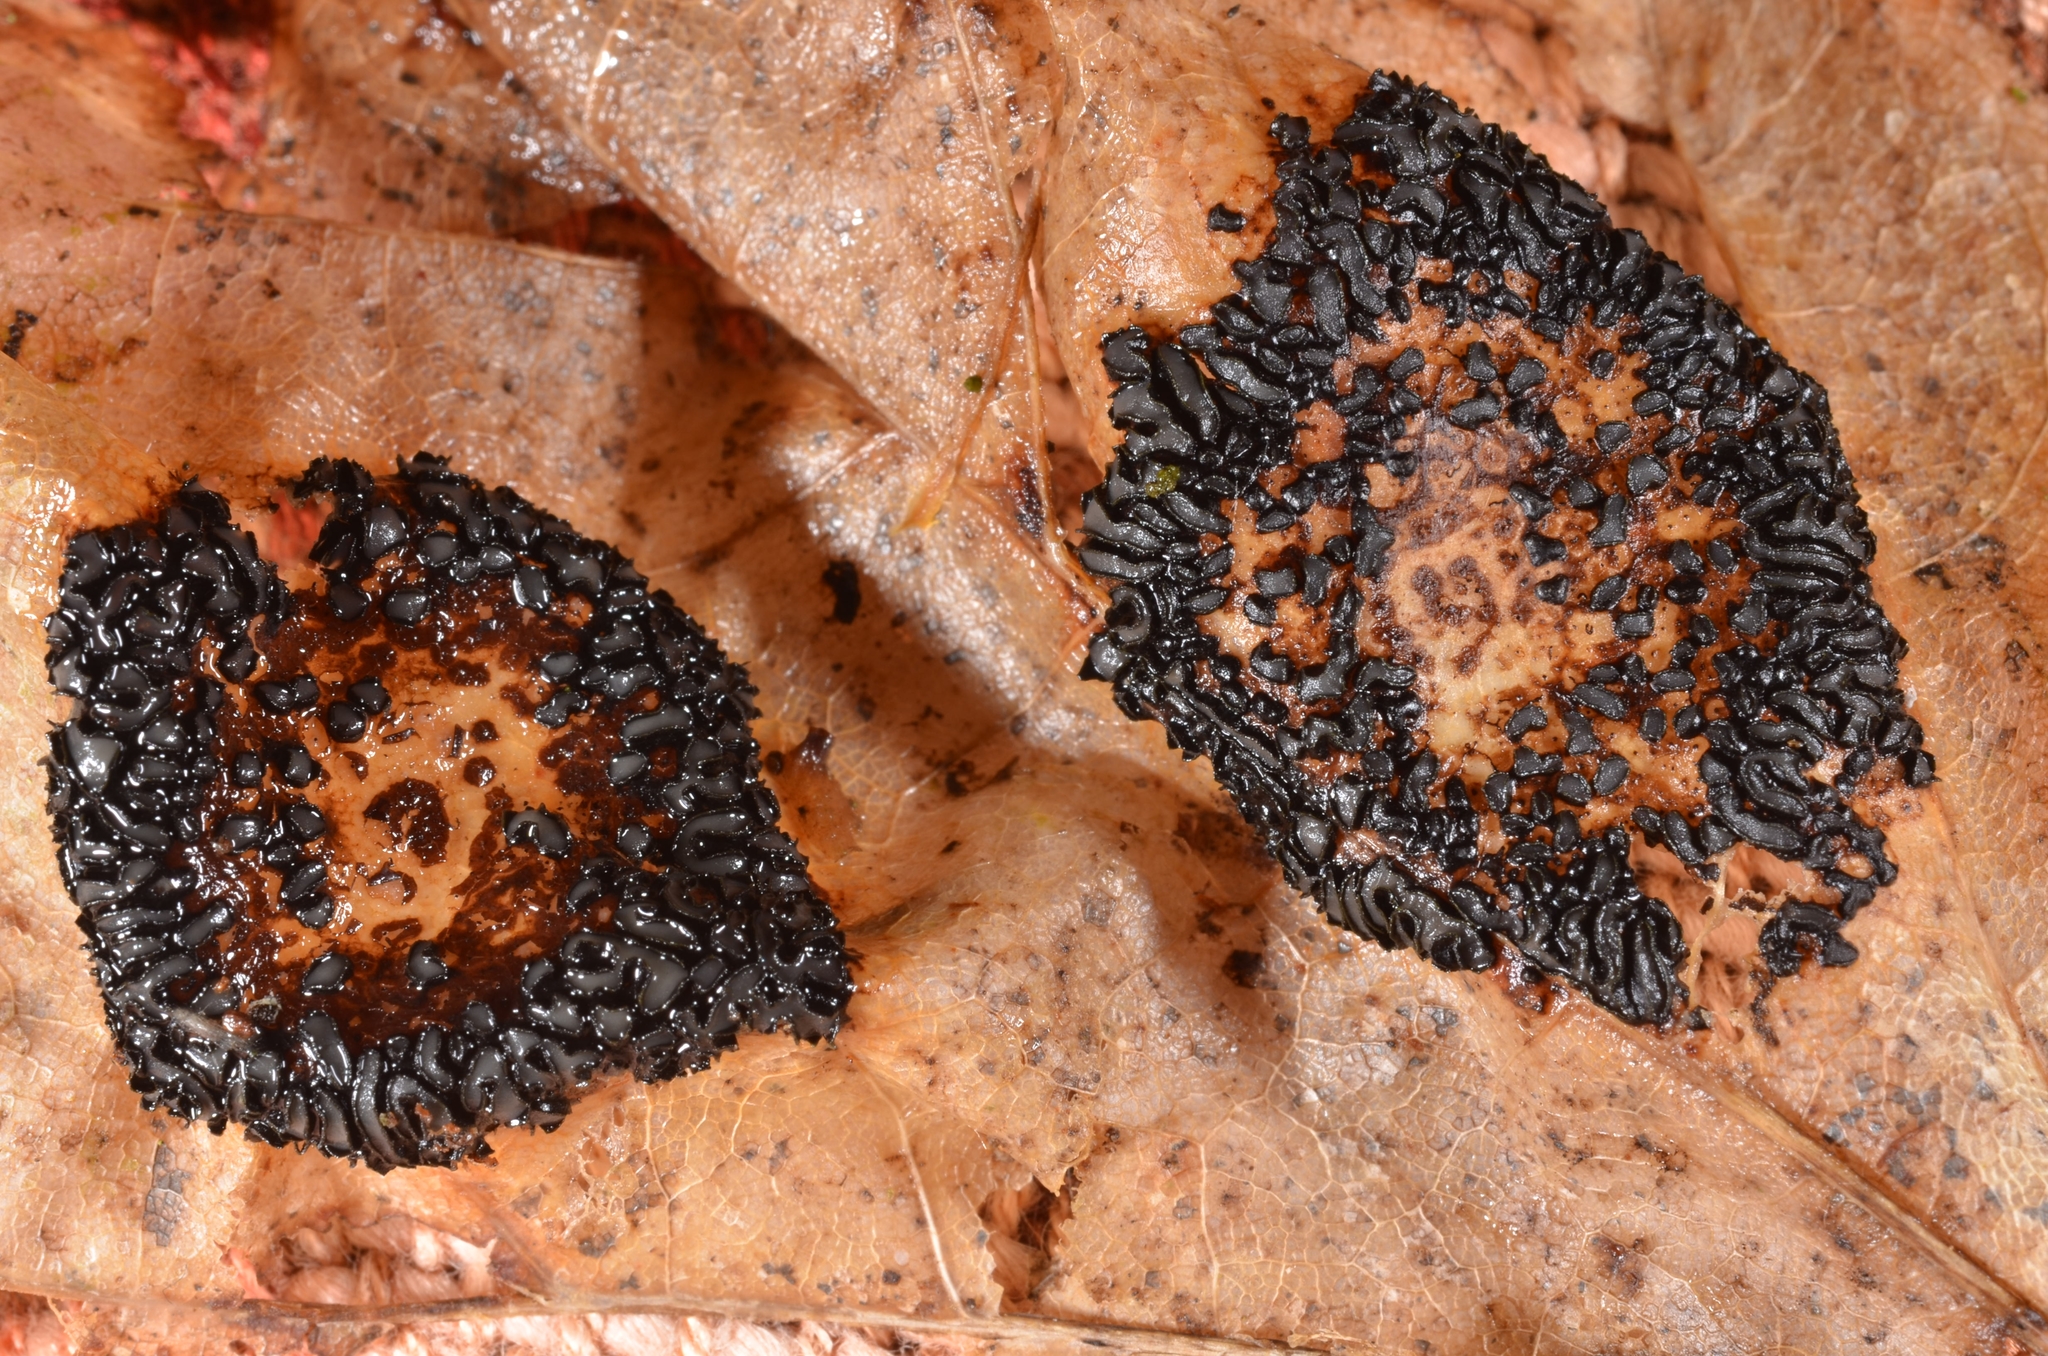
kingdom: Fungi
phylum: Ascomycota
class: Leotiomycetes
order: Rhytismatales
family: Rhytismataceae
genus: Rhytisma
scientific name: Rhytisma acerinum
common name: European tar spot
